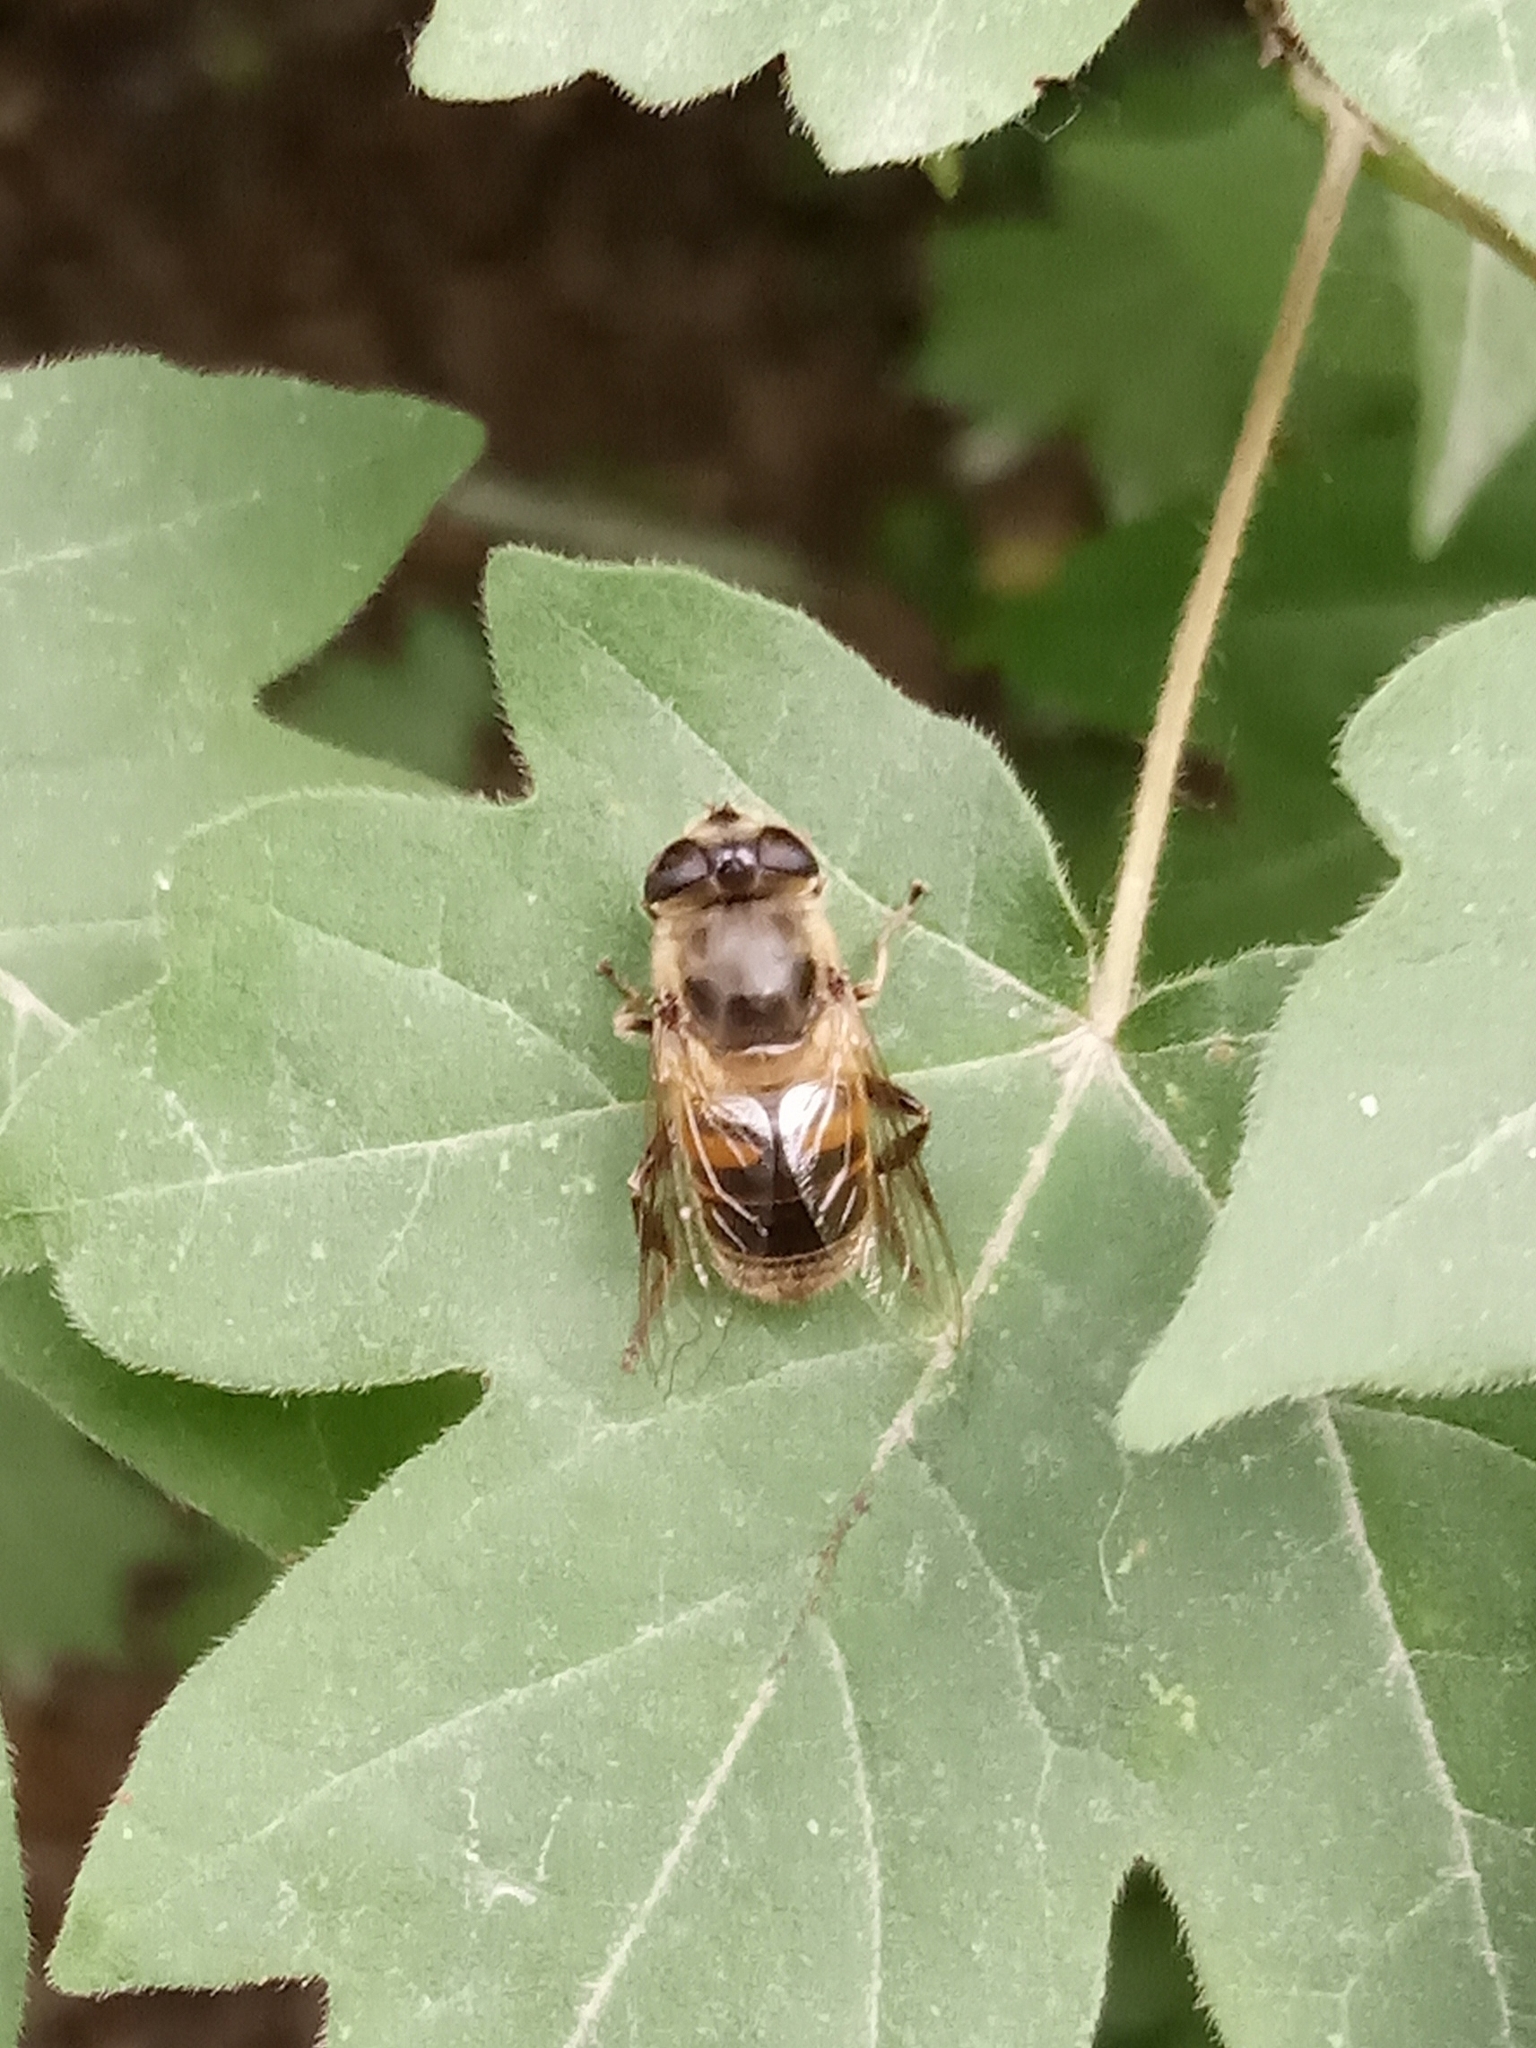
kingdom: Animalia
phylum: Arthropoda
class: Insecta
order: Diptera
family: Syrphidae
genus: Eristalis
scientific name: Eristalis tenax
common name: Drone fly
